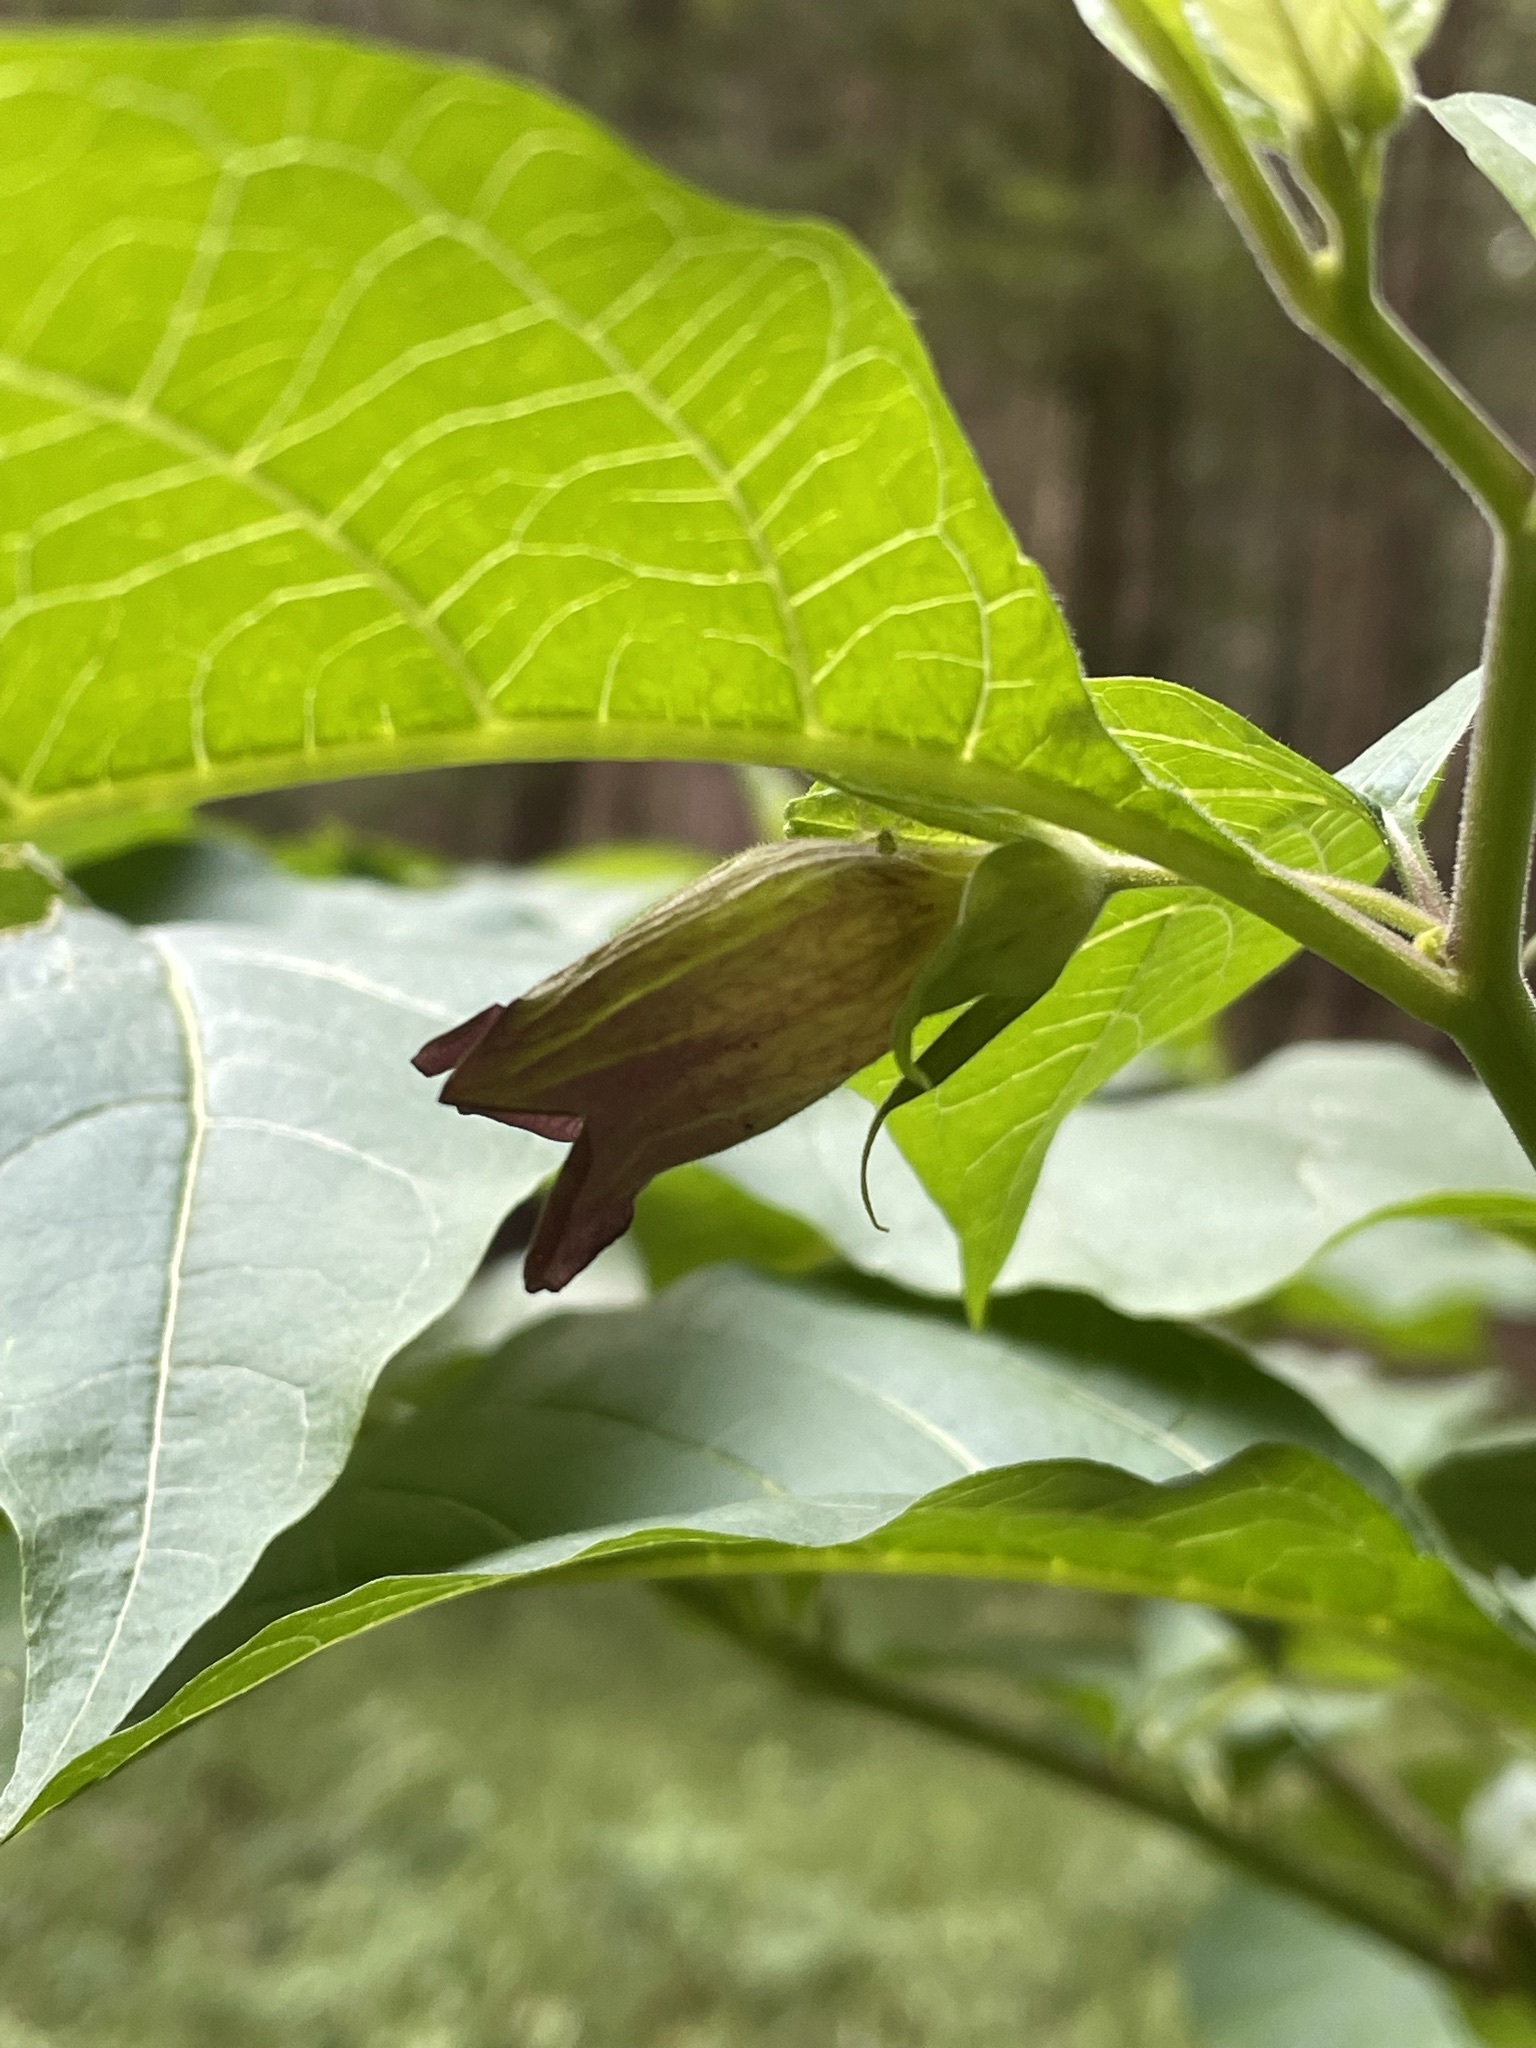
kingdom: Plantae
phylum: Tracheophyta
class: Magnoliopsida
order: Solanales
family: Solanaceae
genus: Atropa
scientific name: Atropa belladonna
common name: Deadly nightshade
